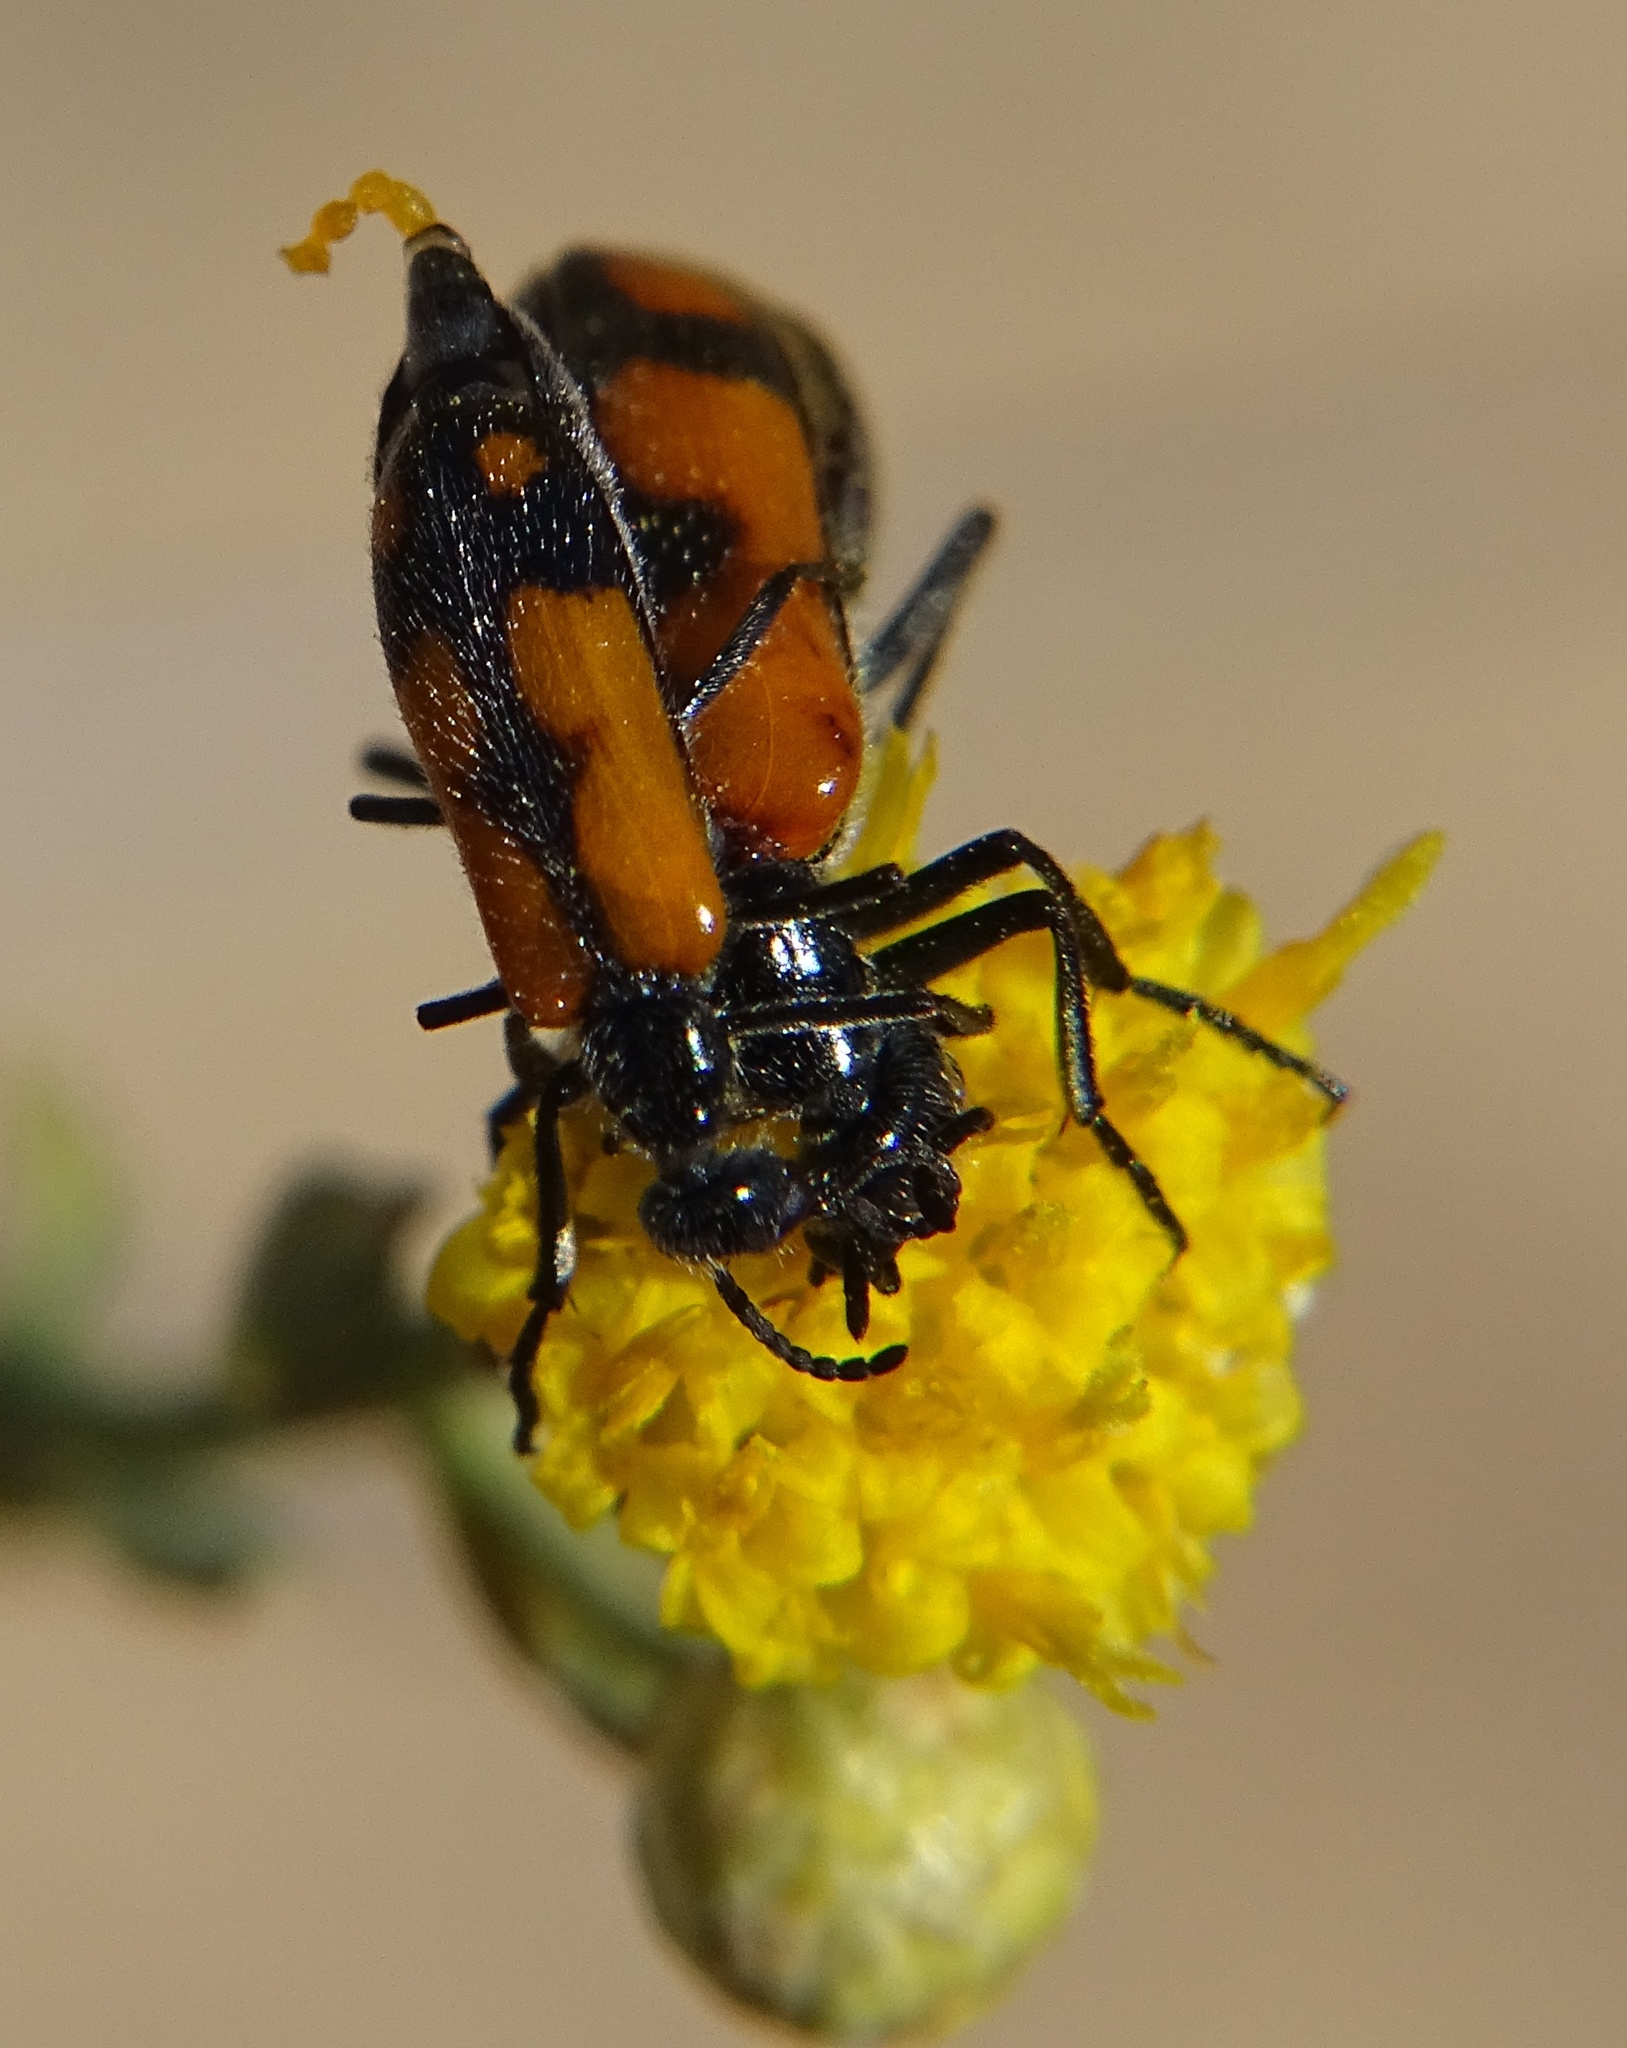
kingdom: Animalia
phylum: Arthropoda
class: Insecta
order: Coleoptera
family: Meloidae
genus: Eupompha
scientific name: Eupompha elegans
